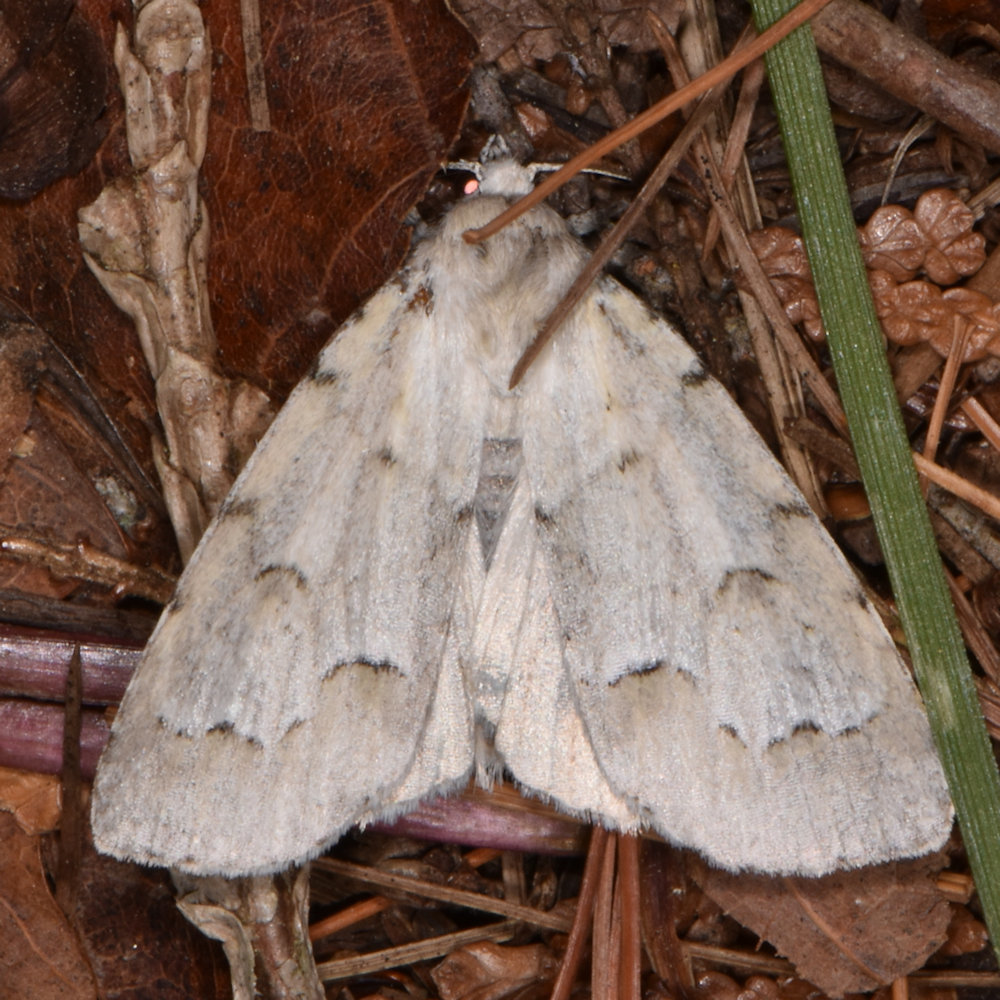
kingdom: Animalia
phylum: Arthropoda
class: Insecta
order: Lepidoptera
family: Noctuidae
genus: Acronicta
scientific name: Acronicta innotata
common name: Unmarked dagger
